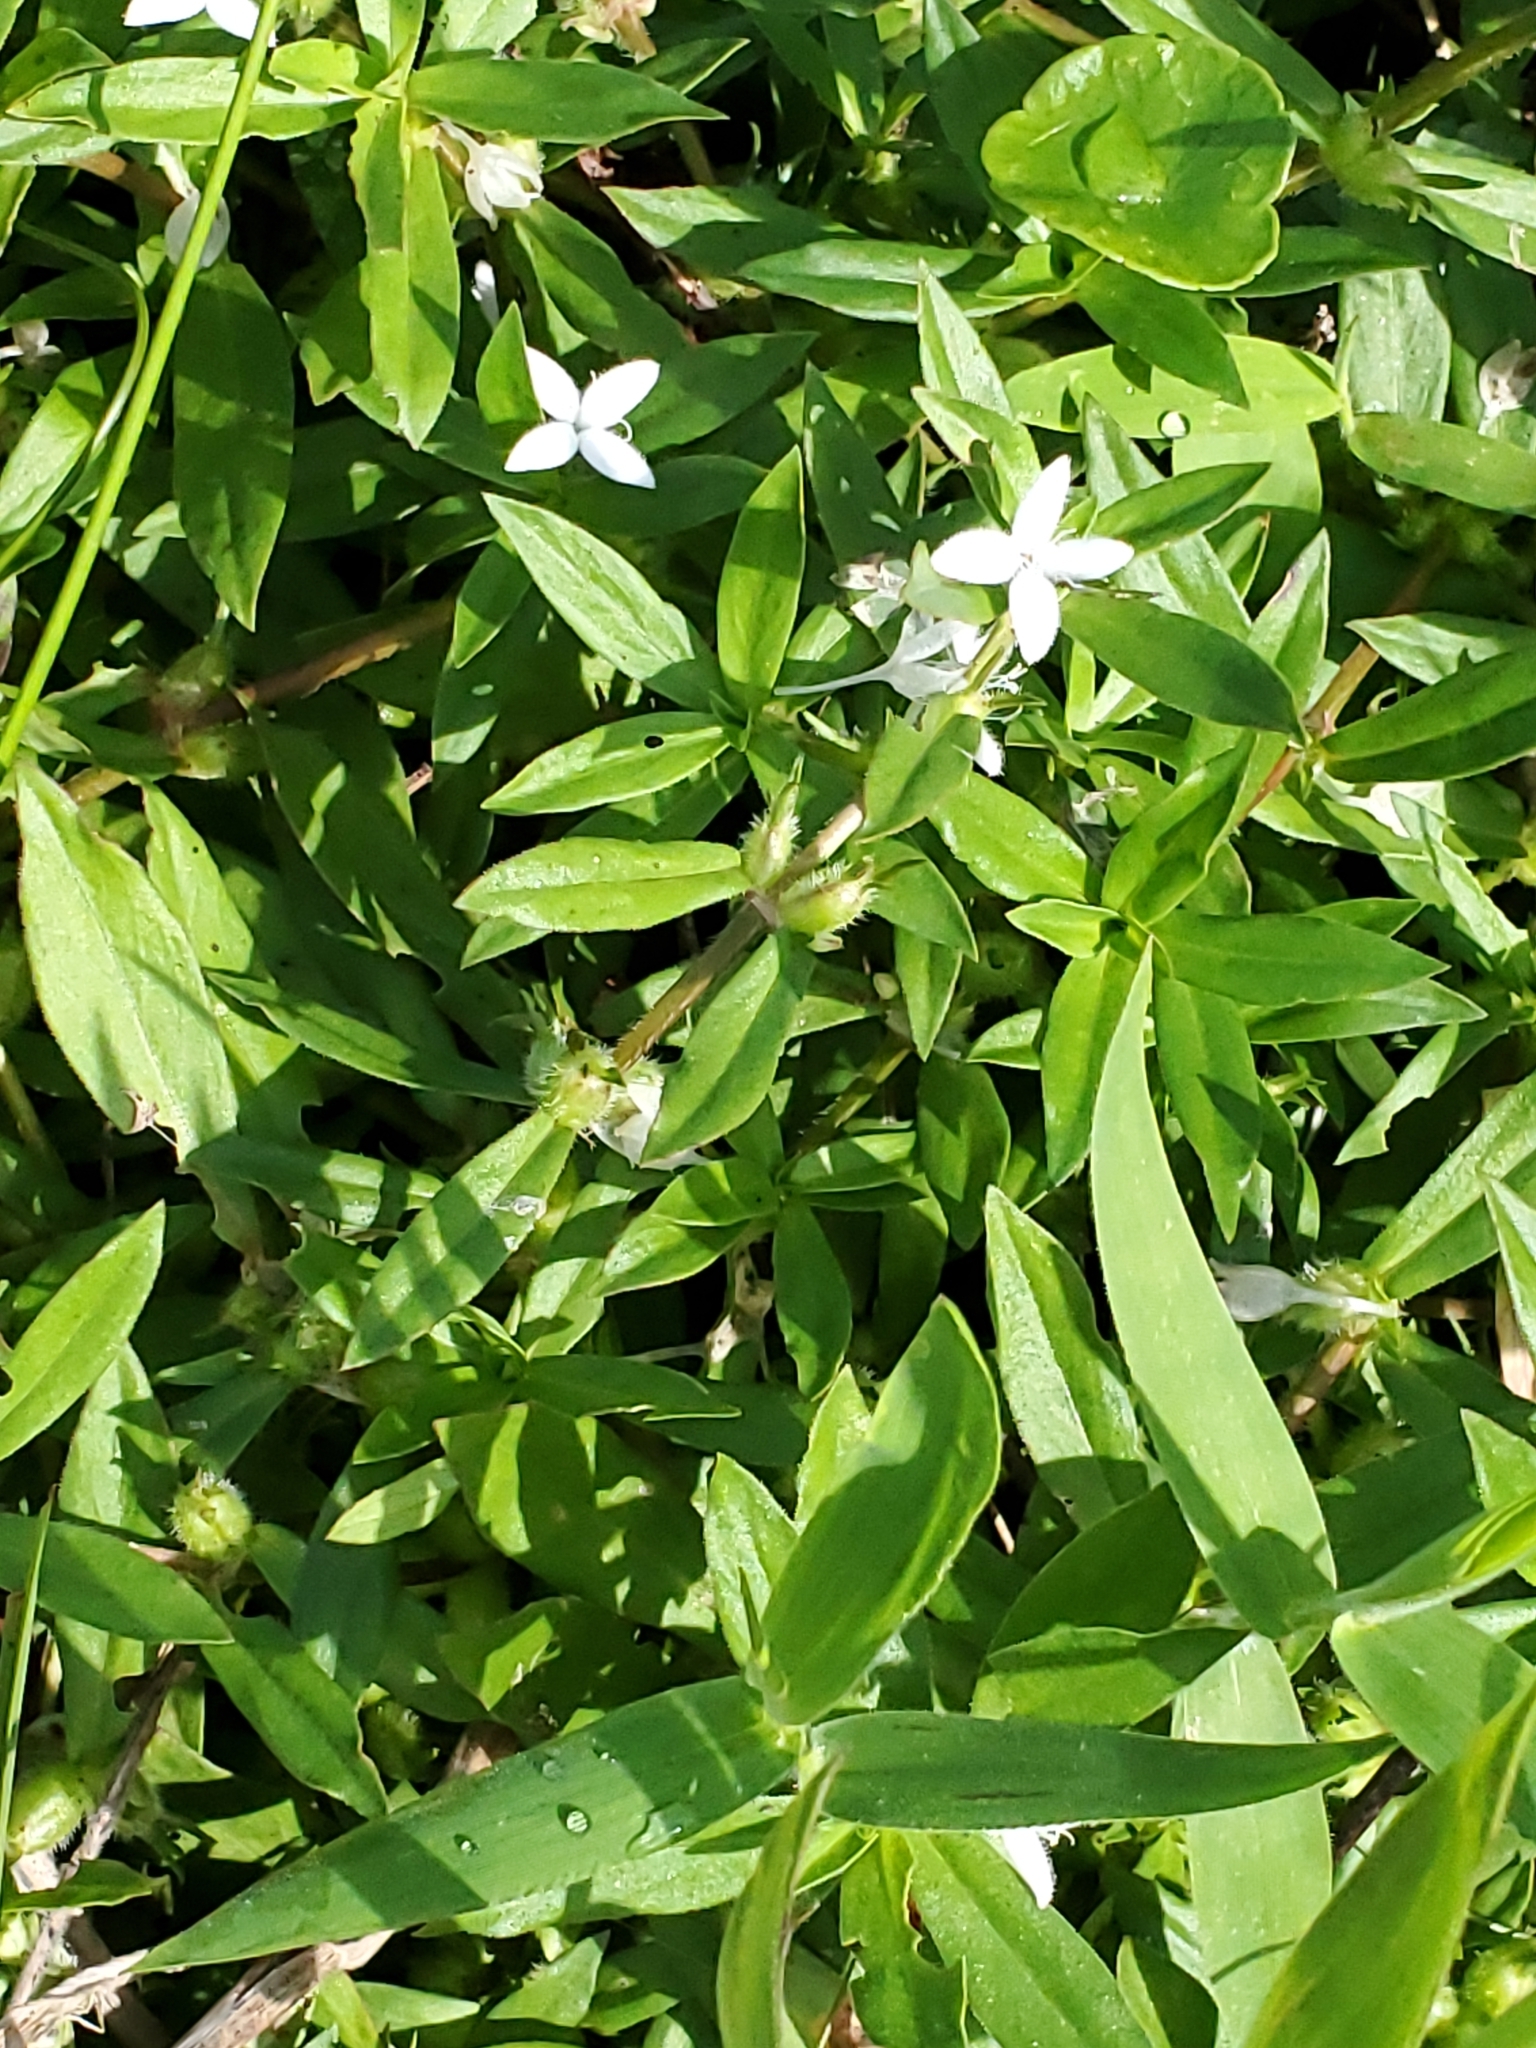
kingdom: Plantae
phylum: Tracheophyta
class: Magnoliopsida
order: Gentianales
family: Rubiaceae
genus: Diodia
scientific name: Diodia virginiana
